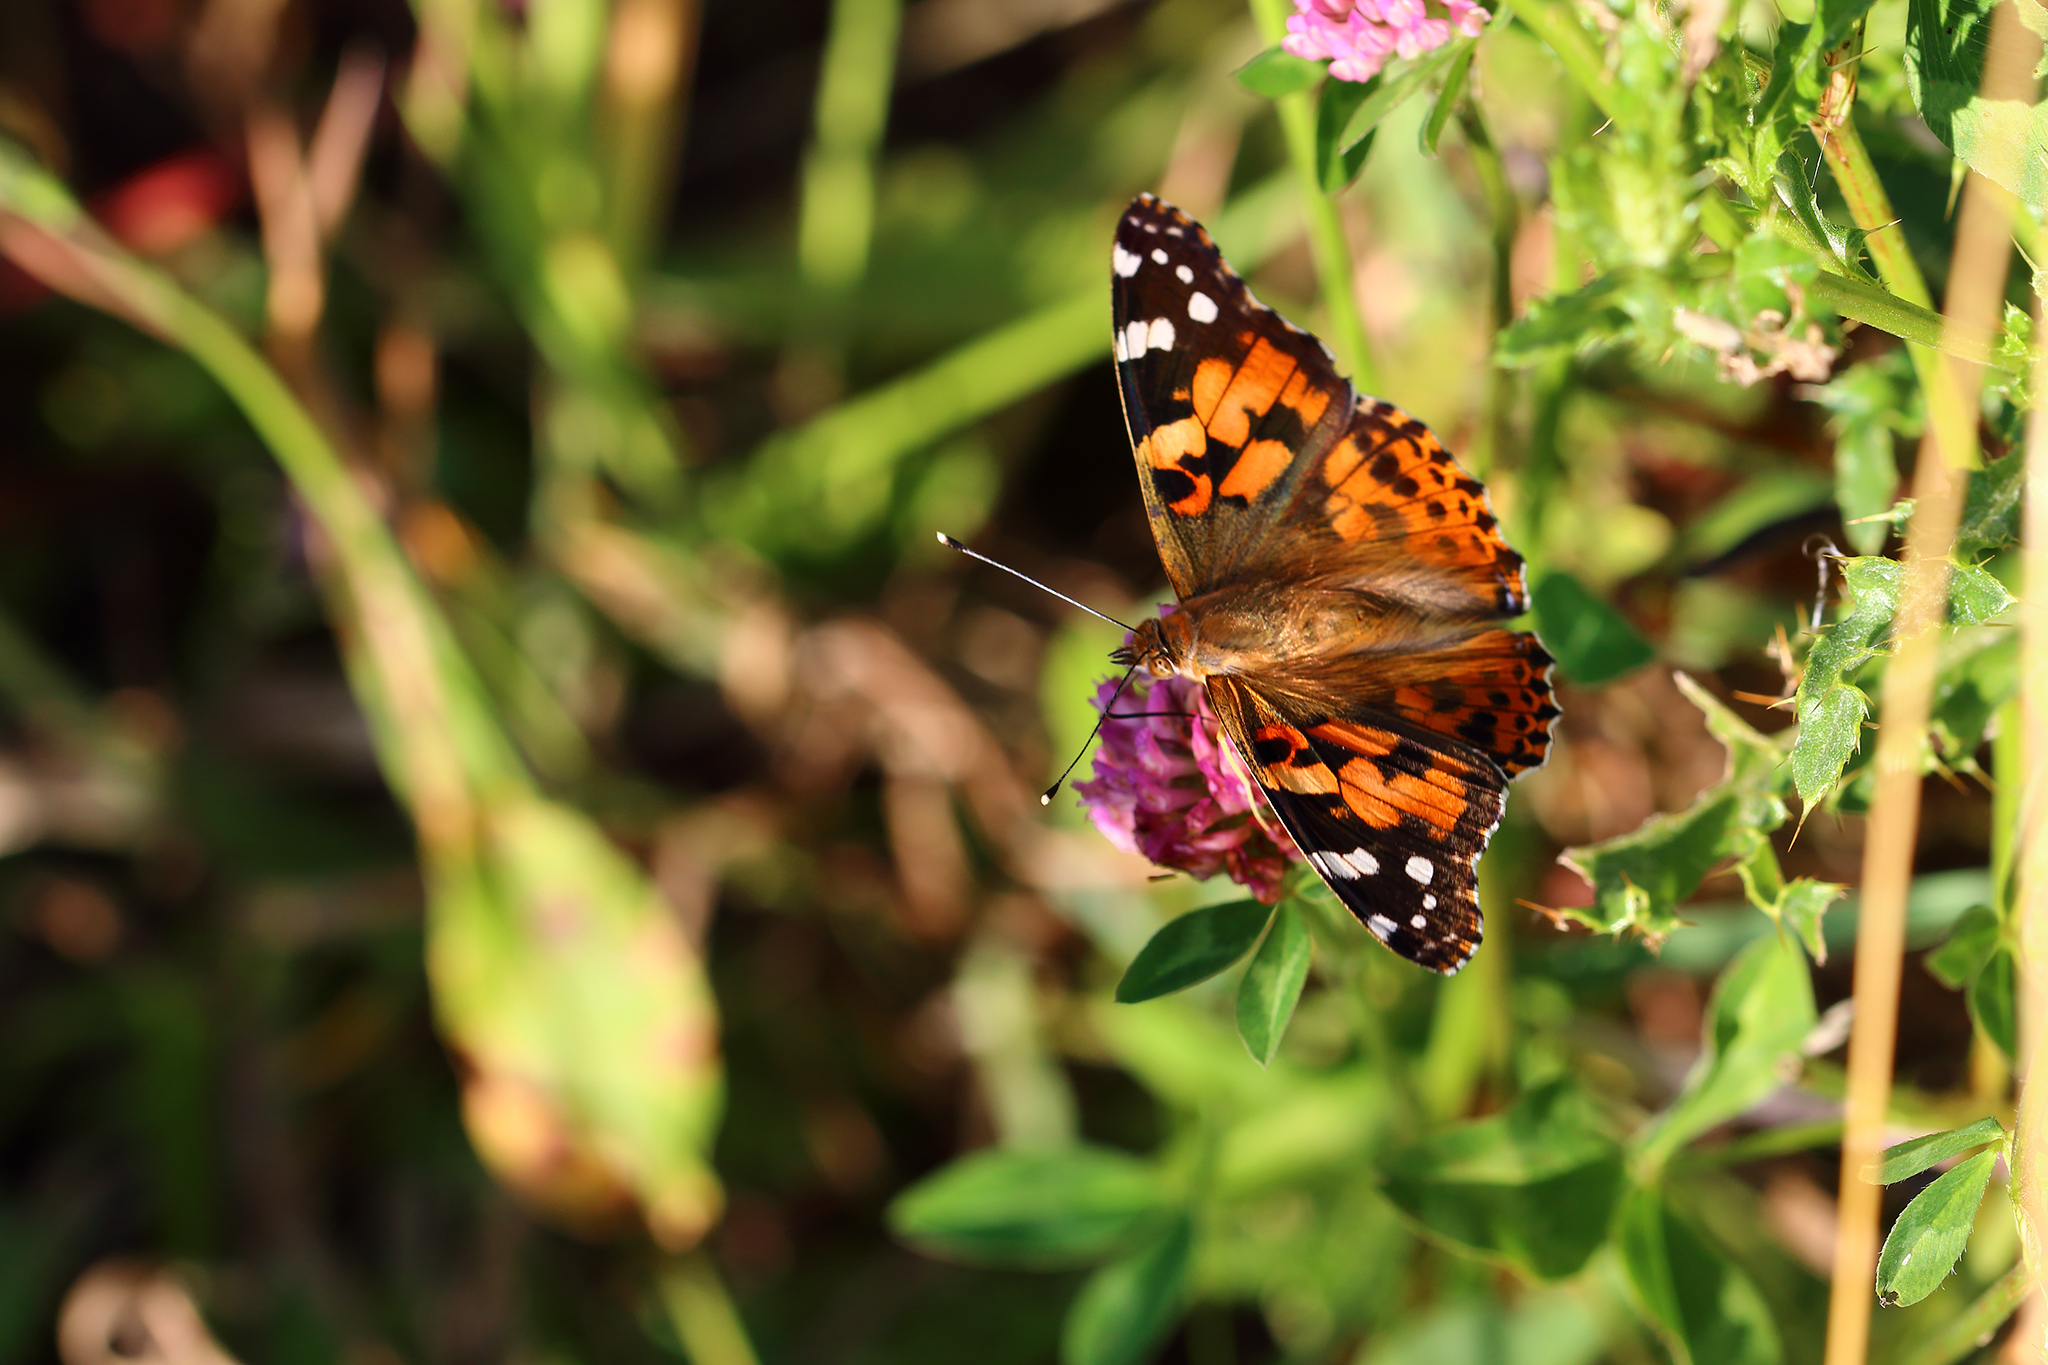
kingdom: Animalia
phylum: Arthropoda
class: Insecta
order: Lepidoptera
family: Nymphalidae
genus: Vanessa
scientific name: Vanessa cardui
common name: Painted lady
